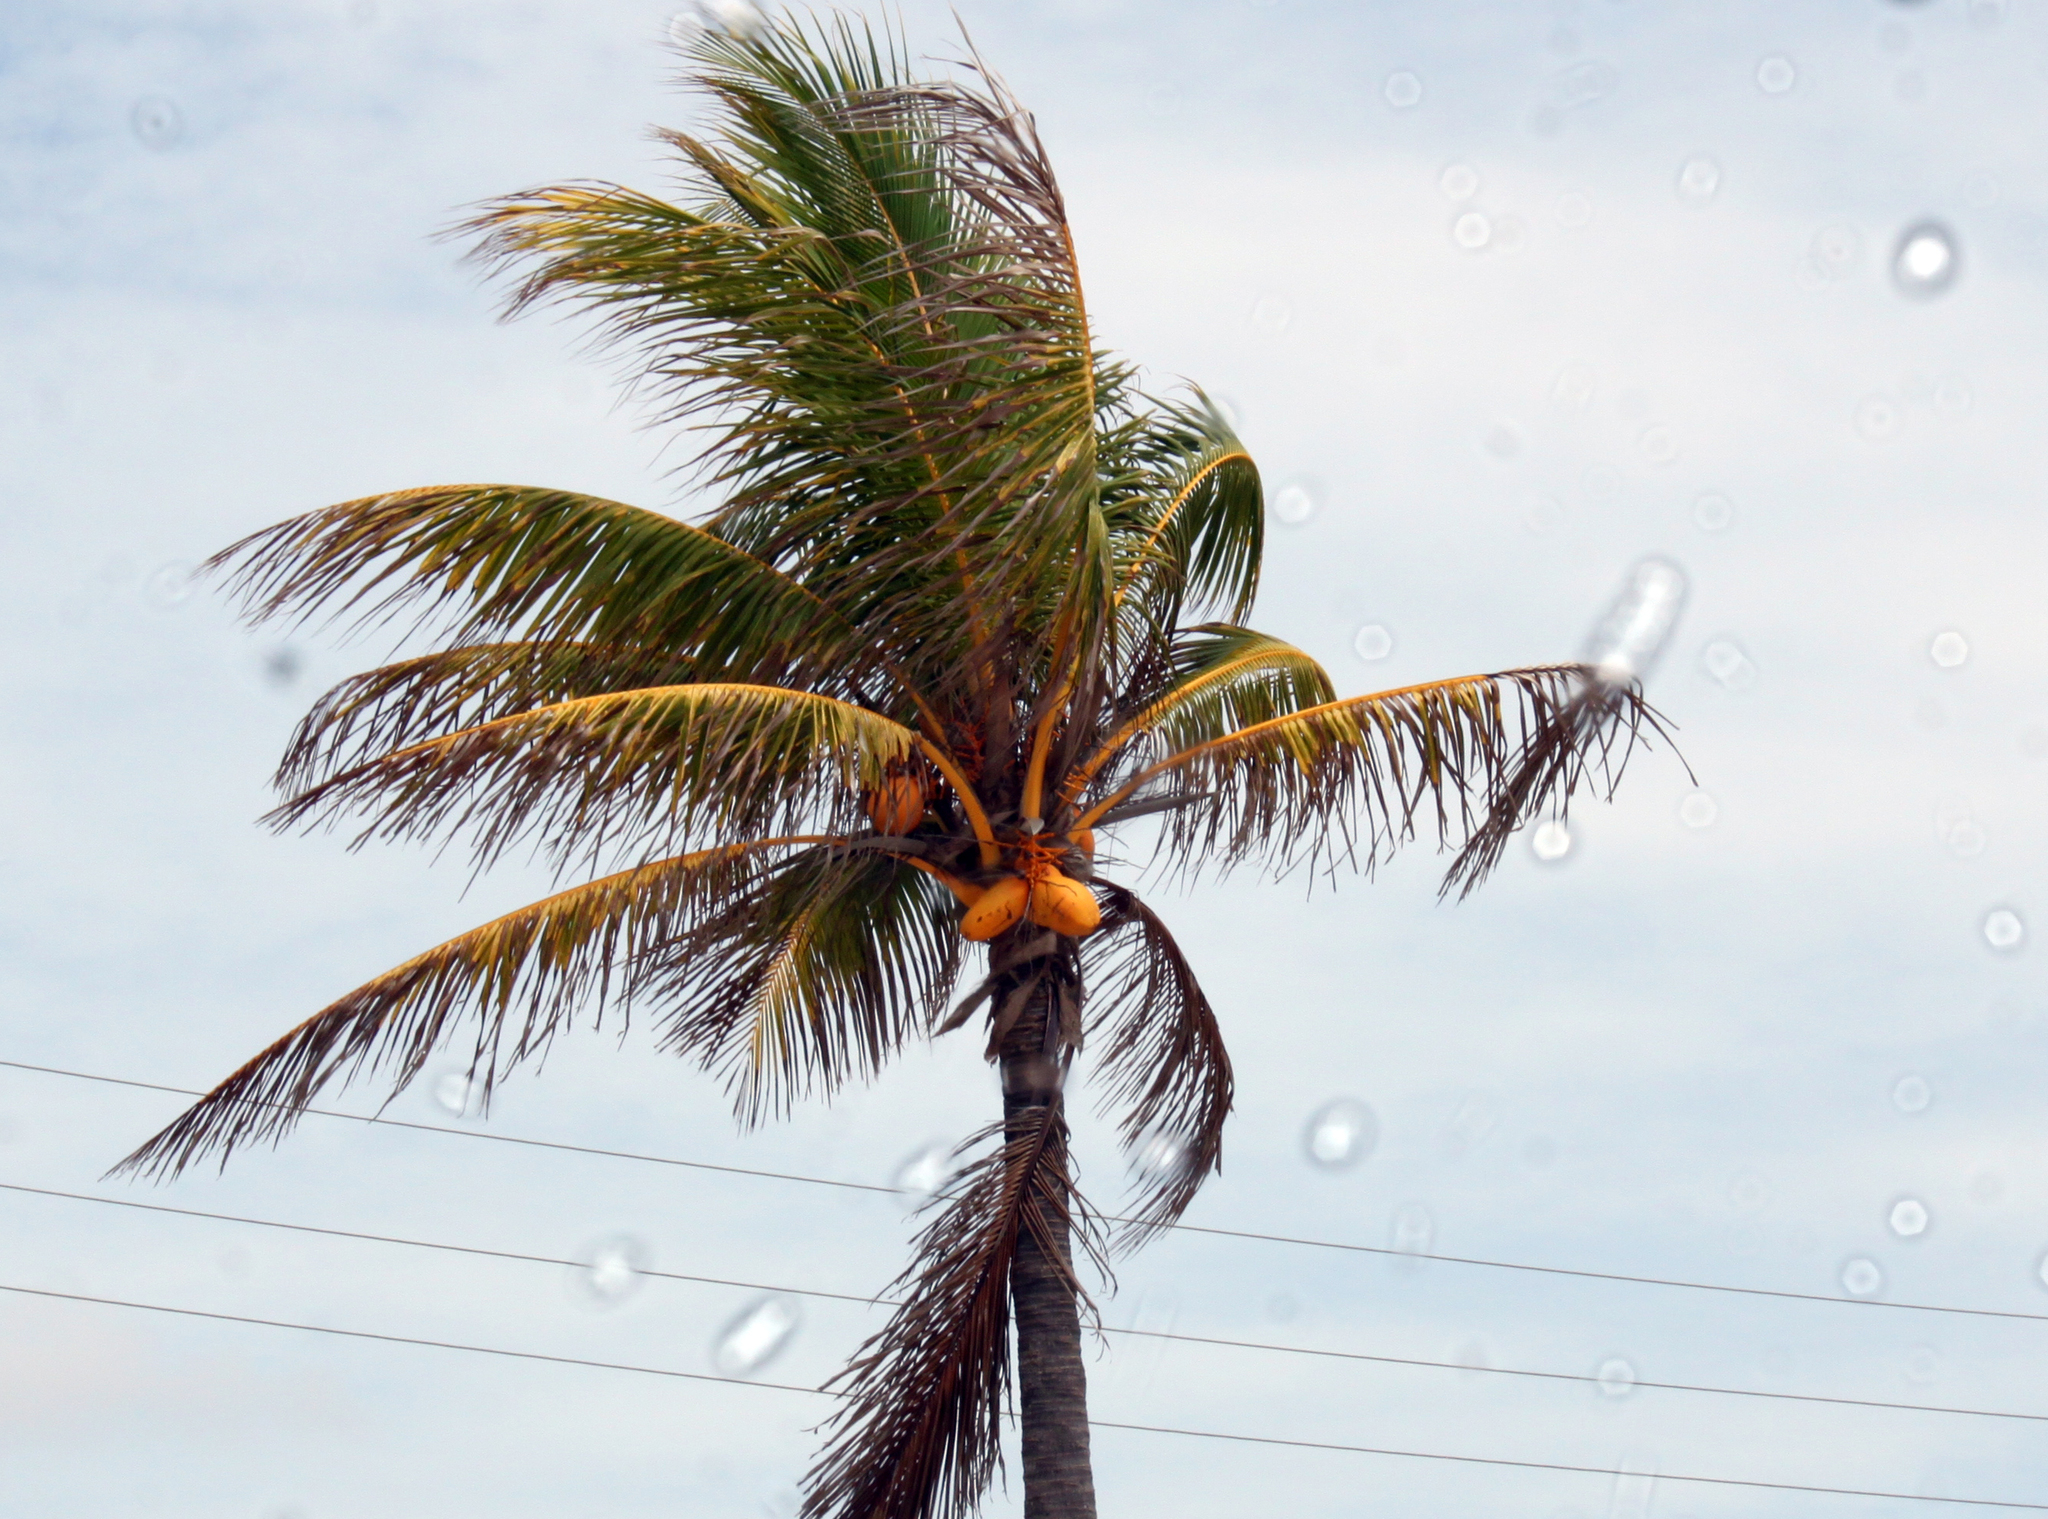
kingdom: Plantae
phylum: Tracheophyta
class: Liliopsida
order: Arecales
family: Arecaceae
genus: Cocos
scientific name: Cocos nucifera
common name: Coconut palm
